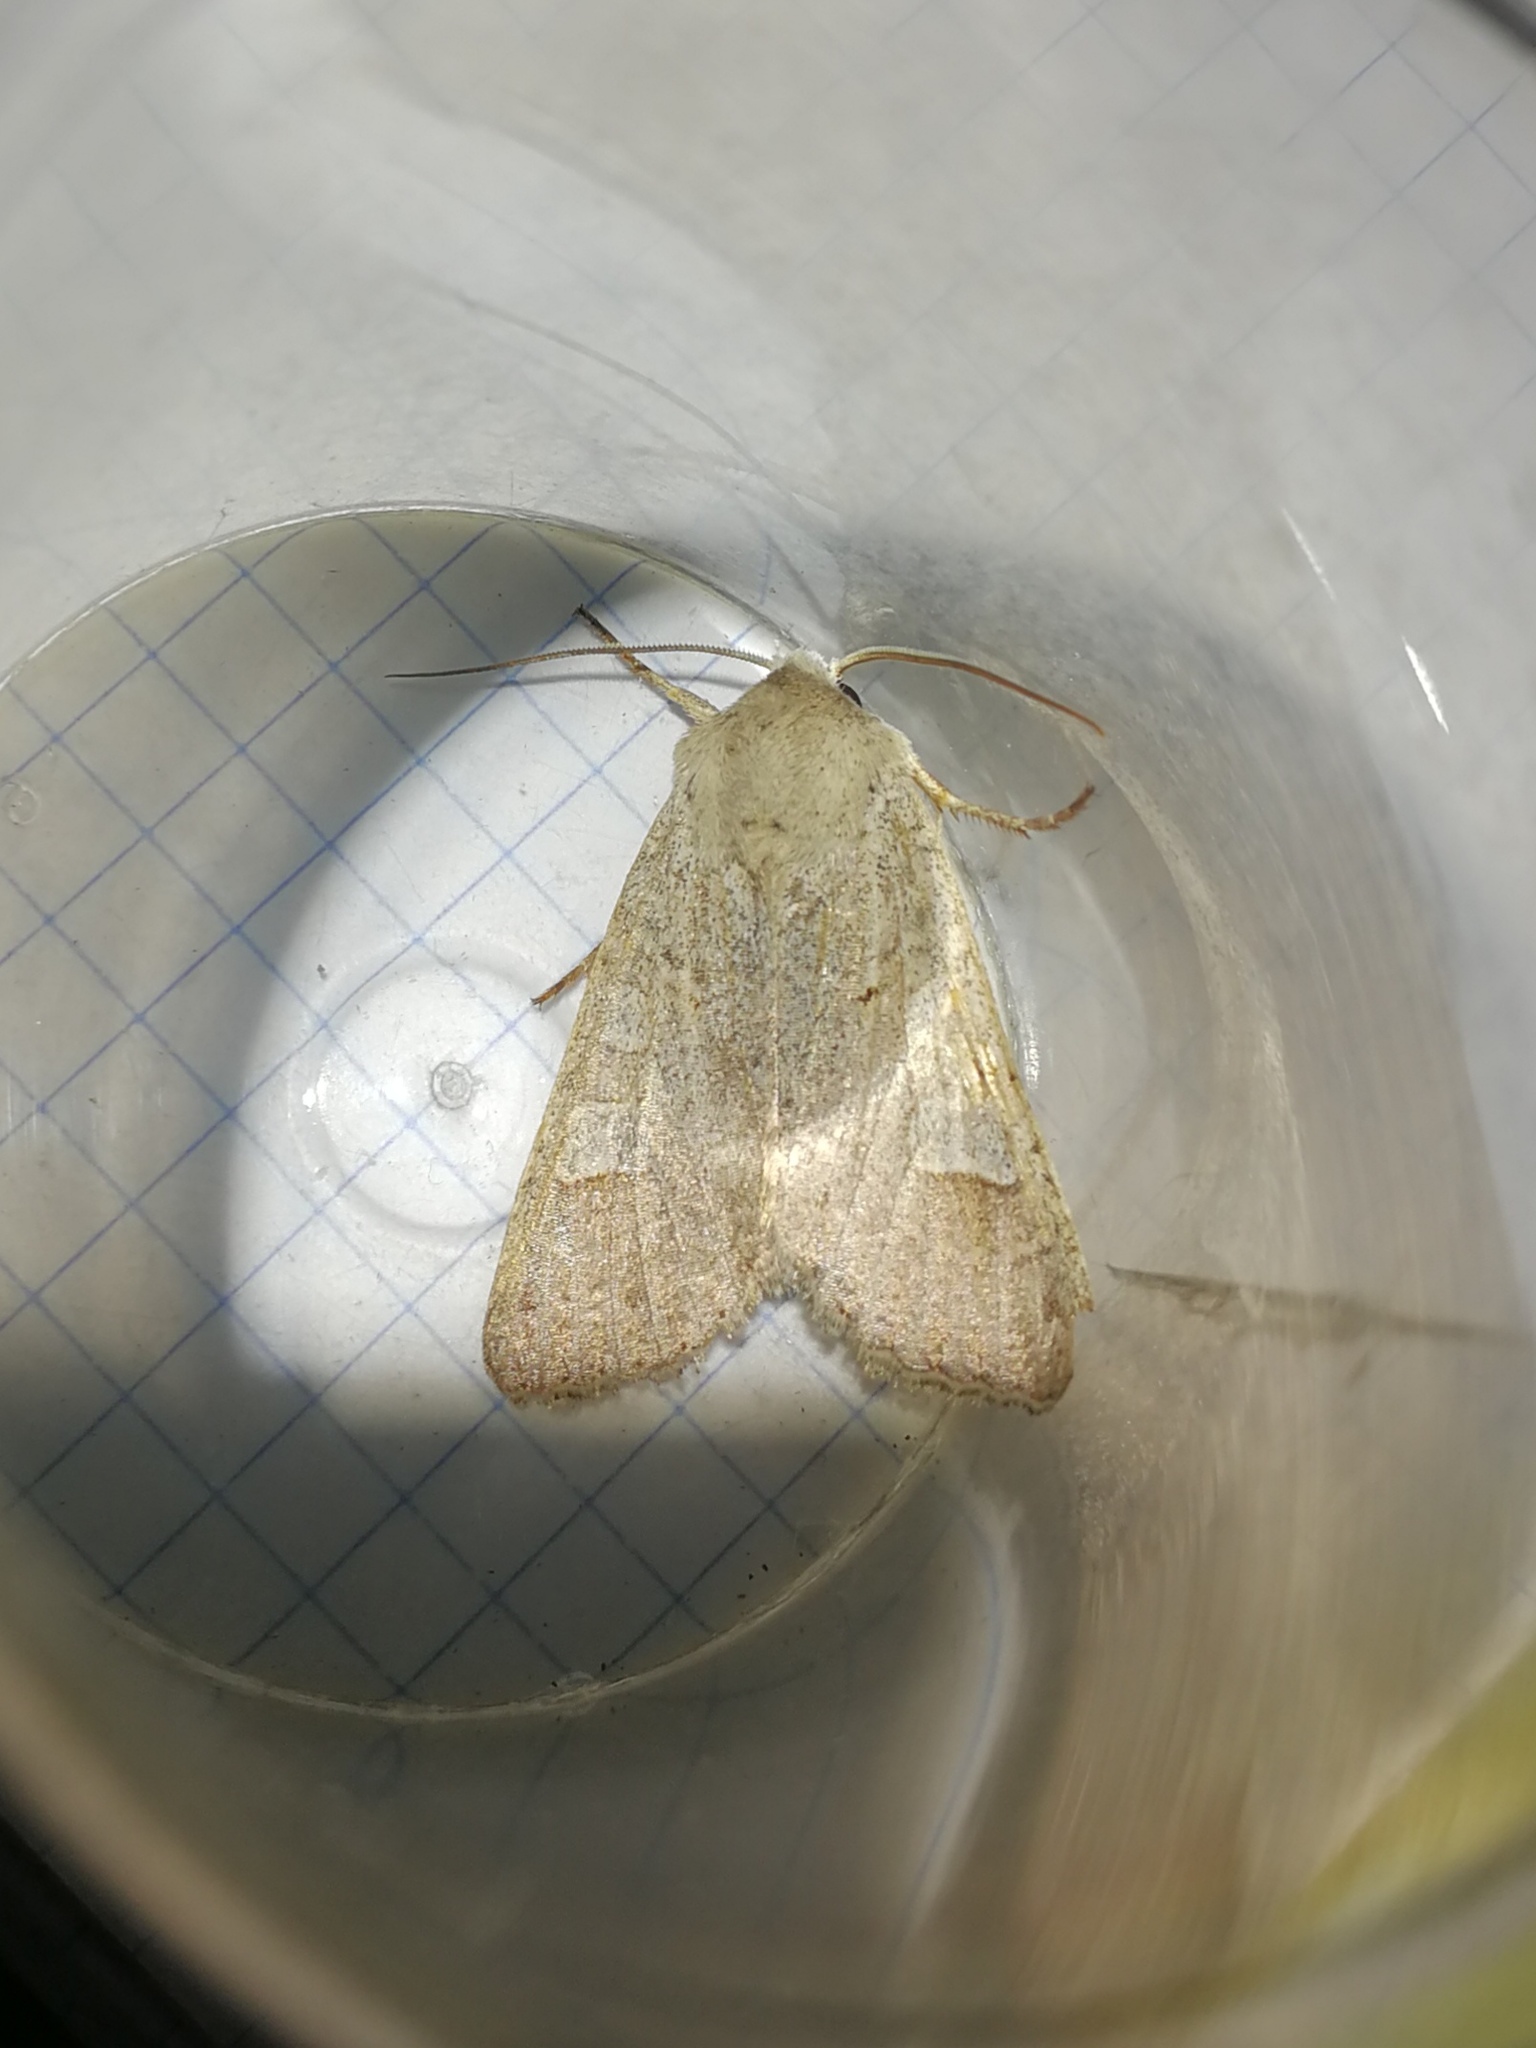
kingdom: Animalia
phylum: Arthropoda
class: Insecta
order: Lepidoptera
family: Noctuidae
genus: Ammoconia
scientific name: Ammoconia caecimacula
